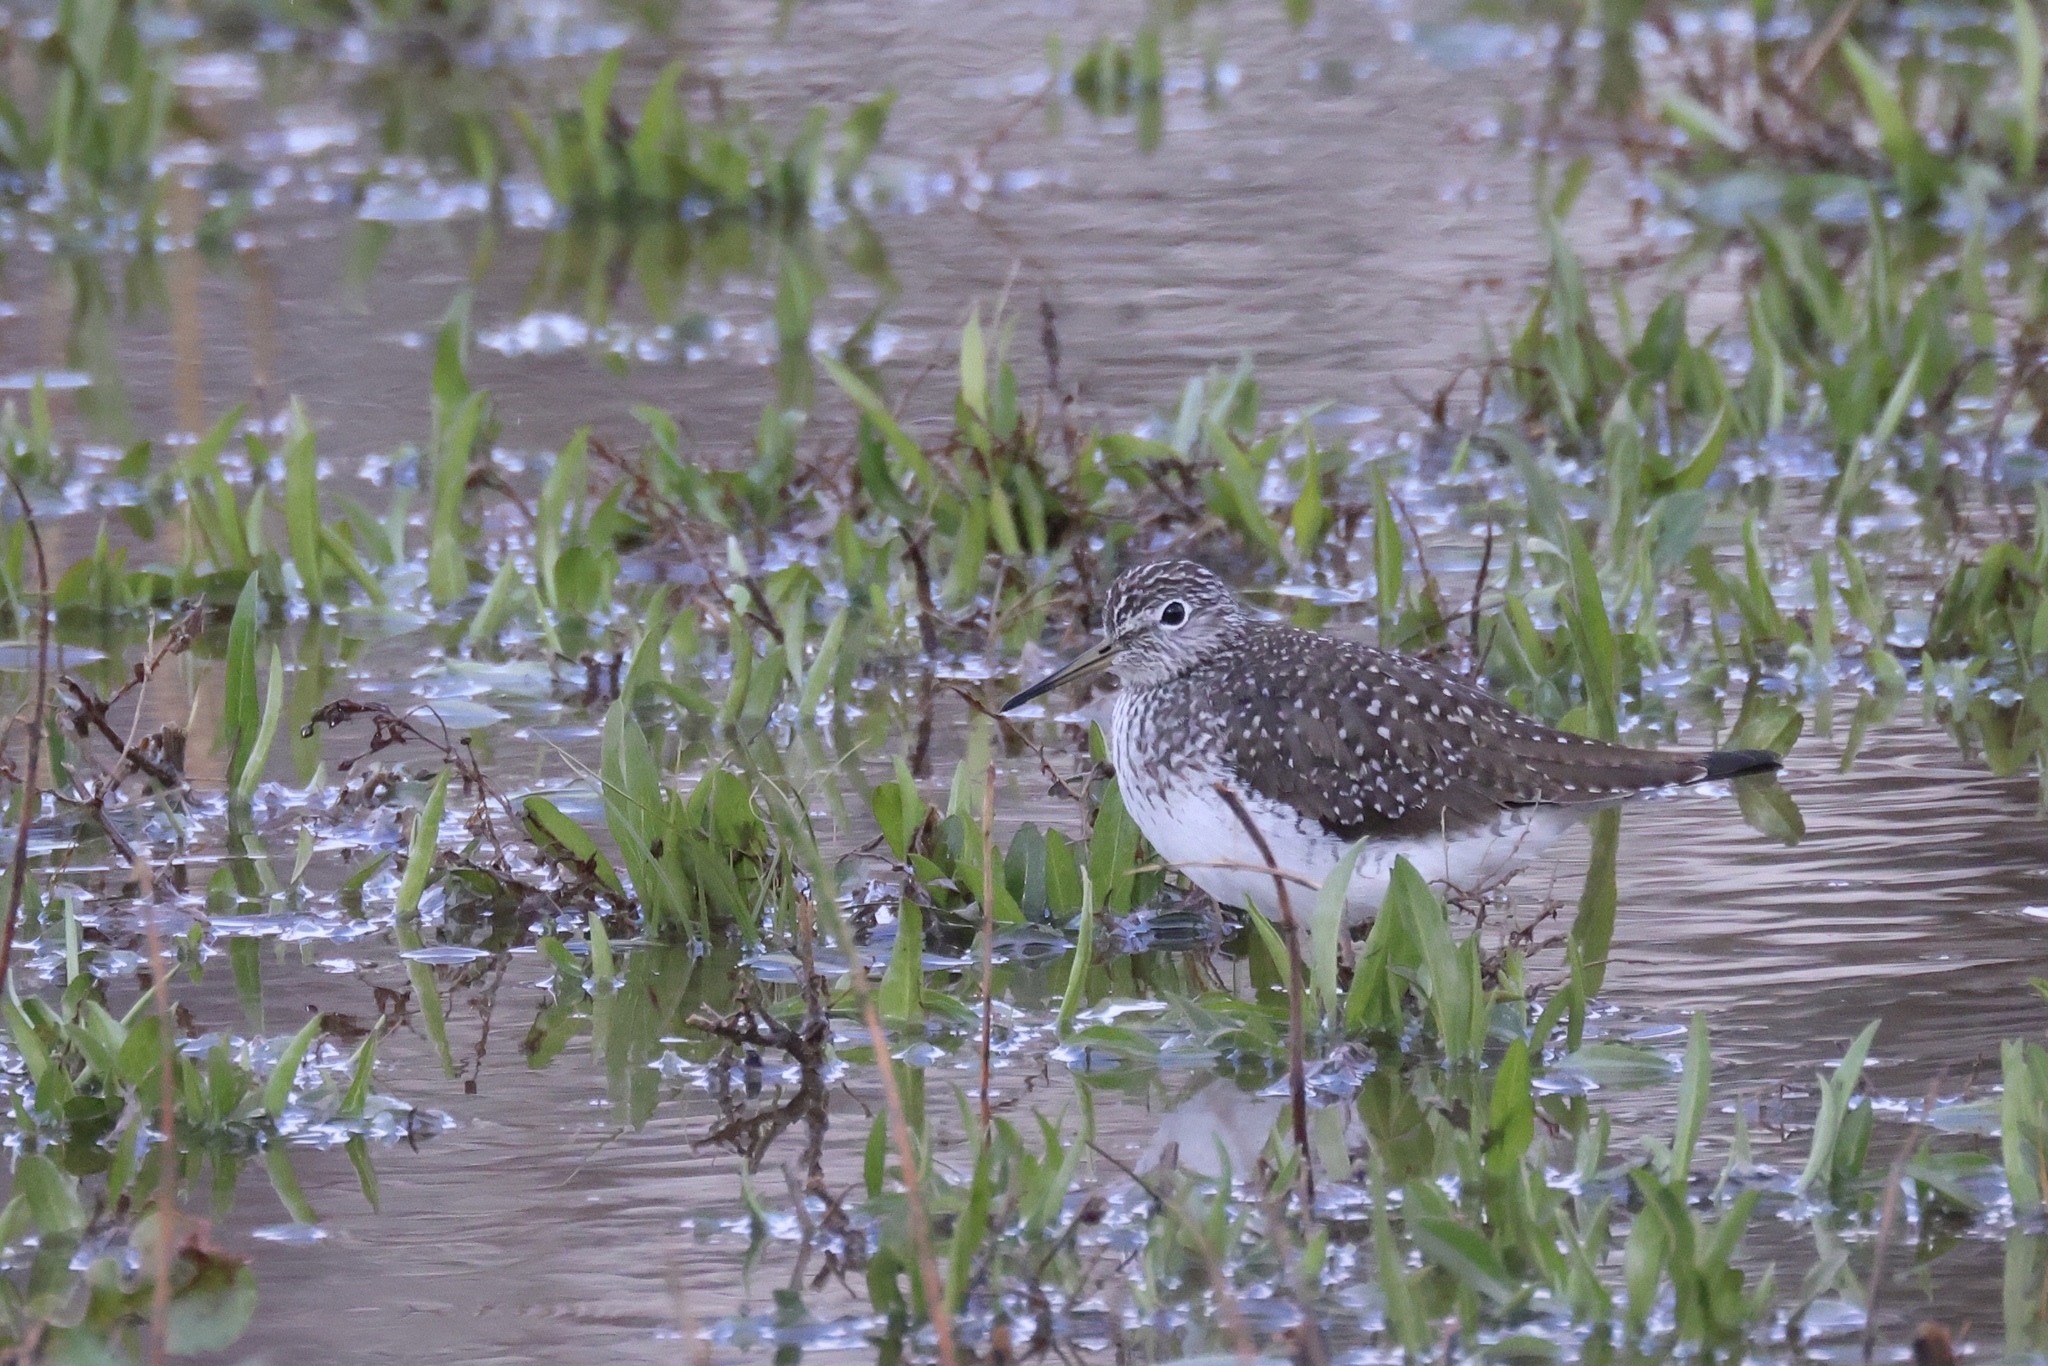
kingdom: Animalia
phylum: Chordata
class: Aves
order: Charadriiformes
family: Scolopacidae
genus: Tringa
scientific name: Tringa solitaria
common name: Solitary sandpiper
